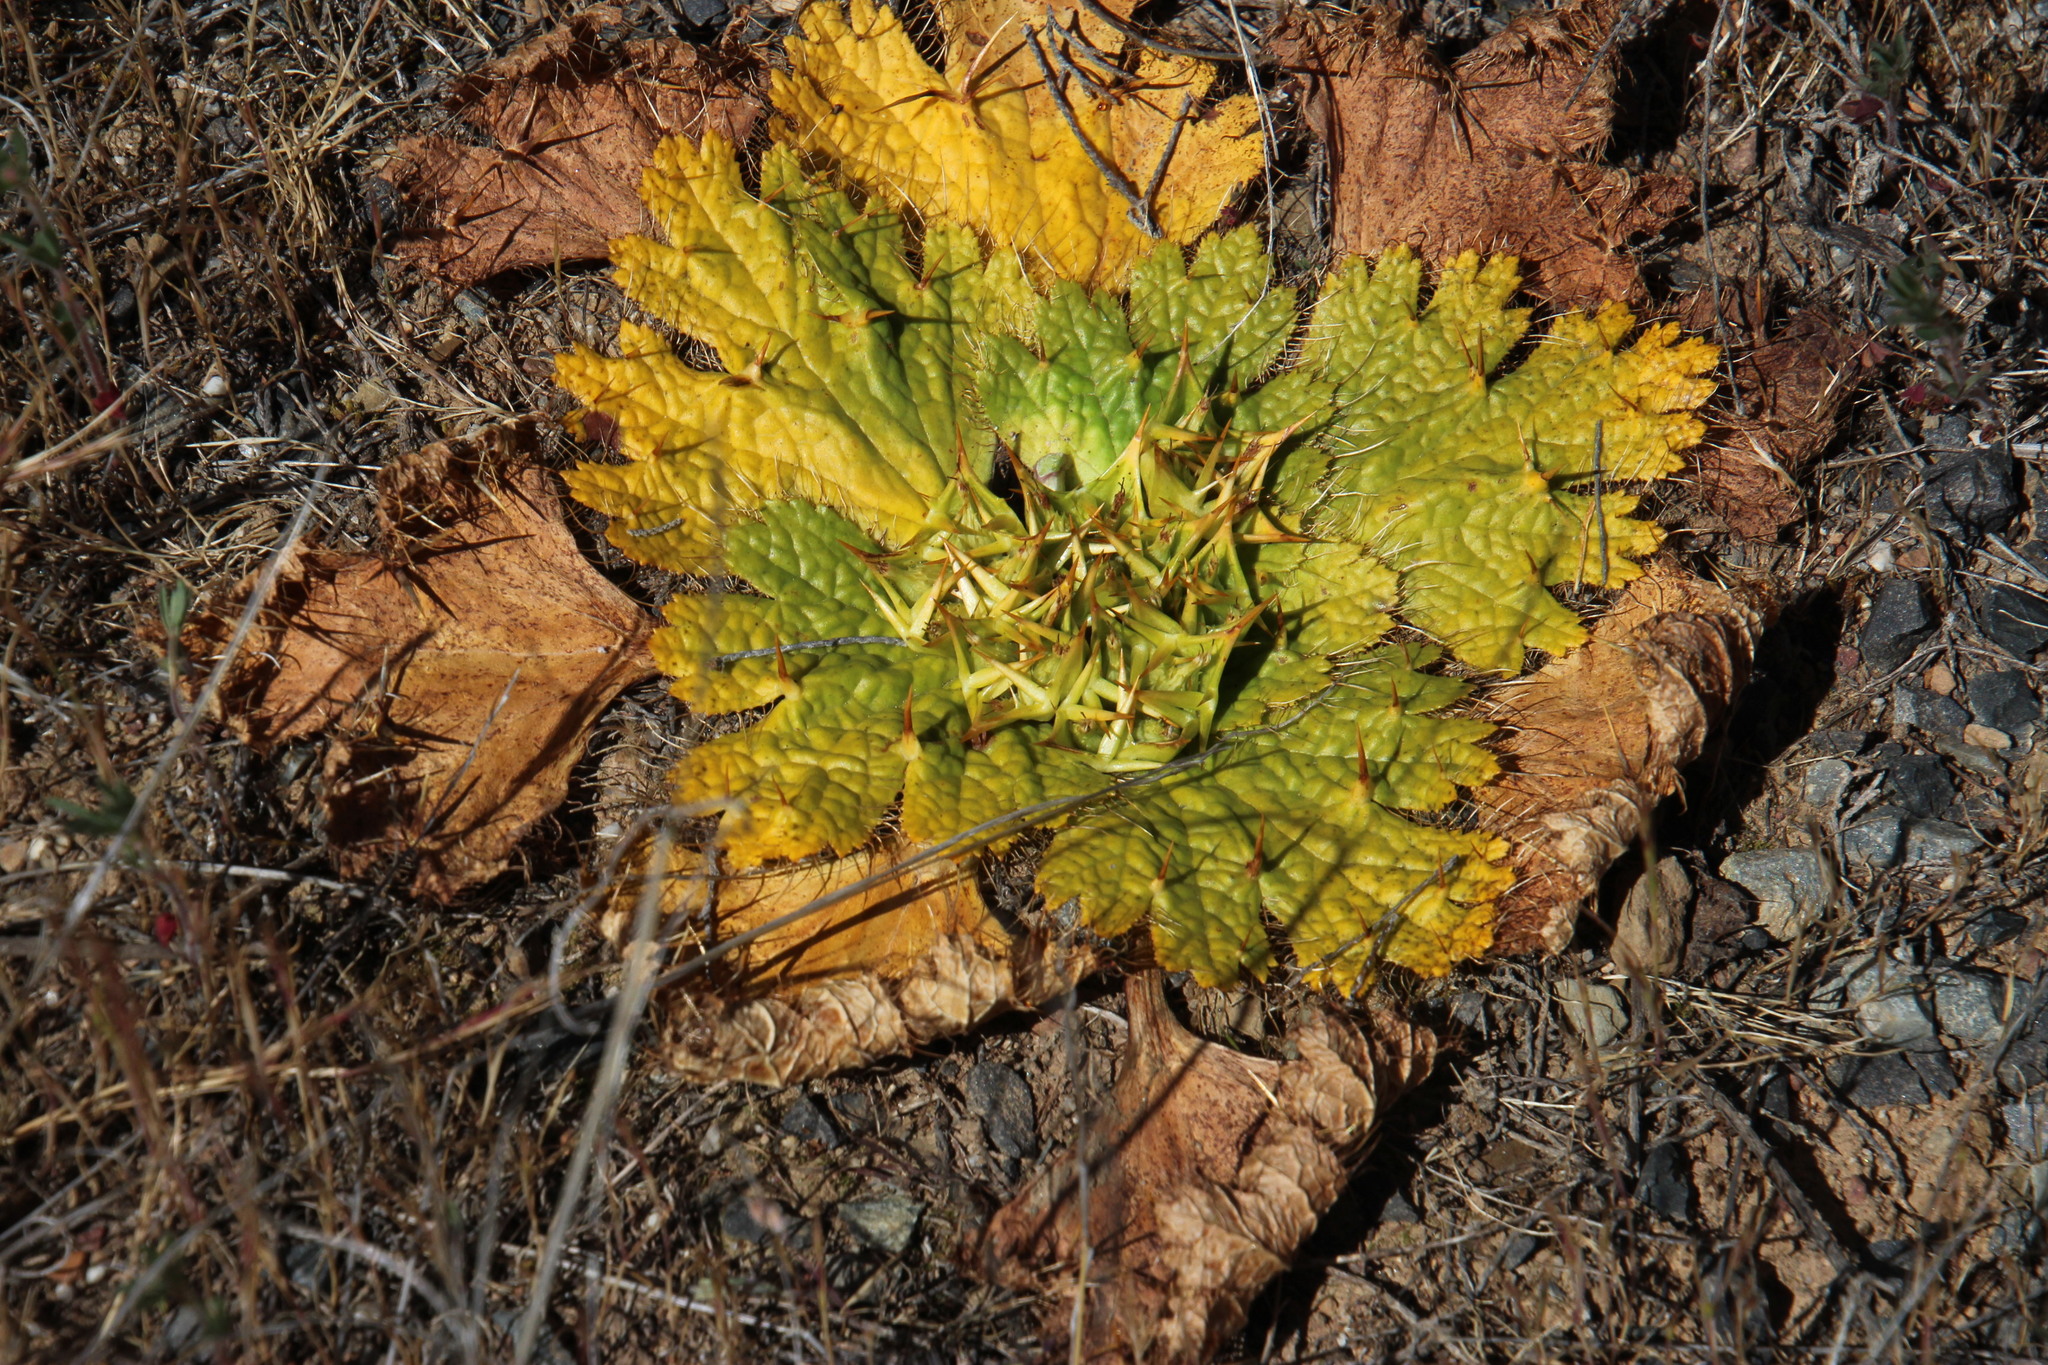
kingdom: Plantae
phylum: Tracheophyta
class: Magnoliopsida
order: Apiales
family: Apiaceae
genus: Arctopus
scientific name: Arctopus echinatus
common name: Platdoring
